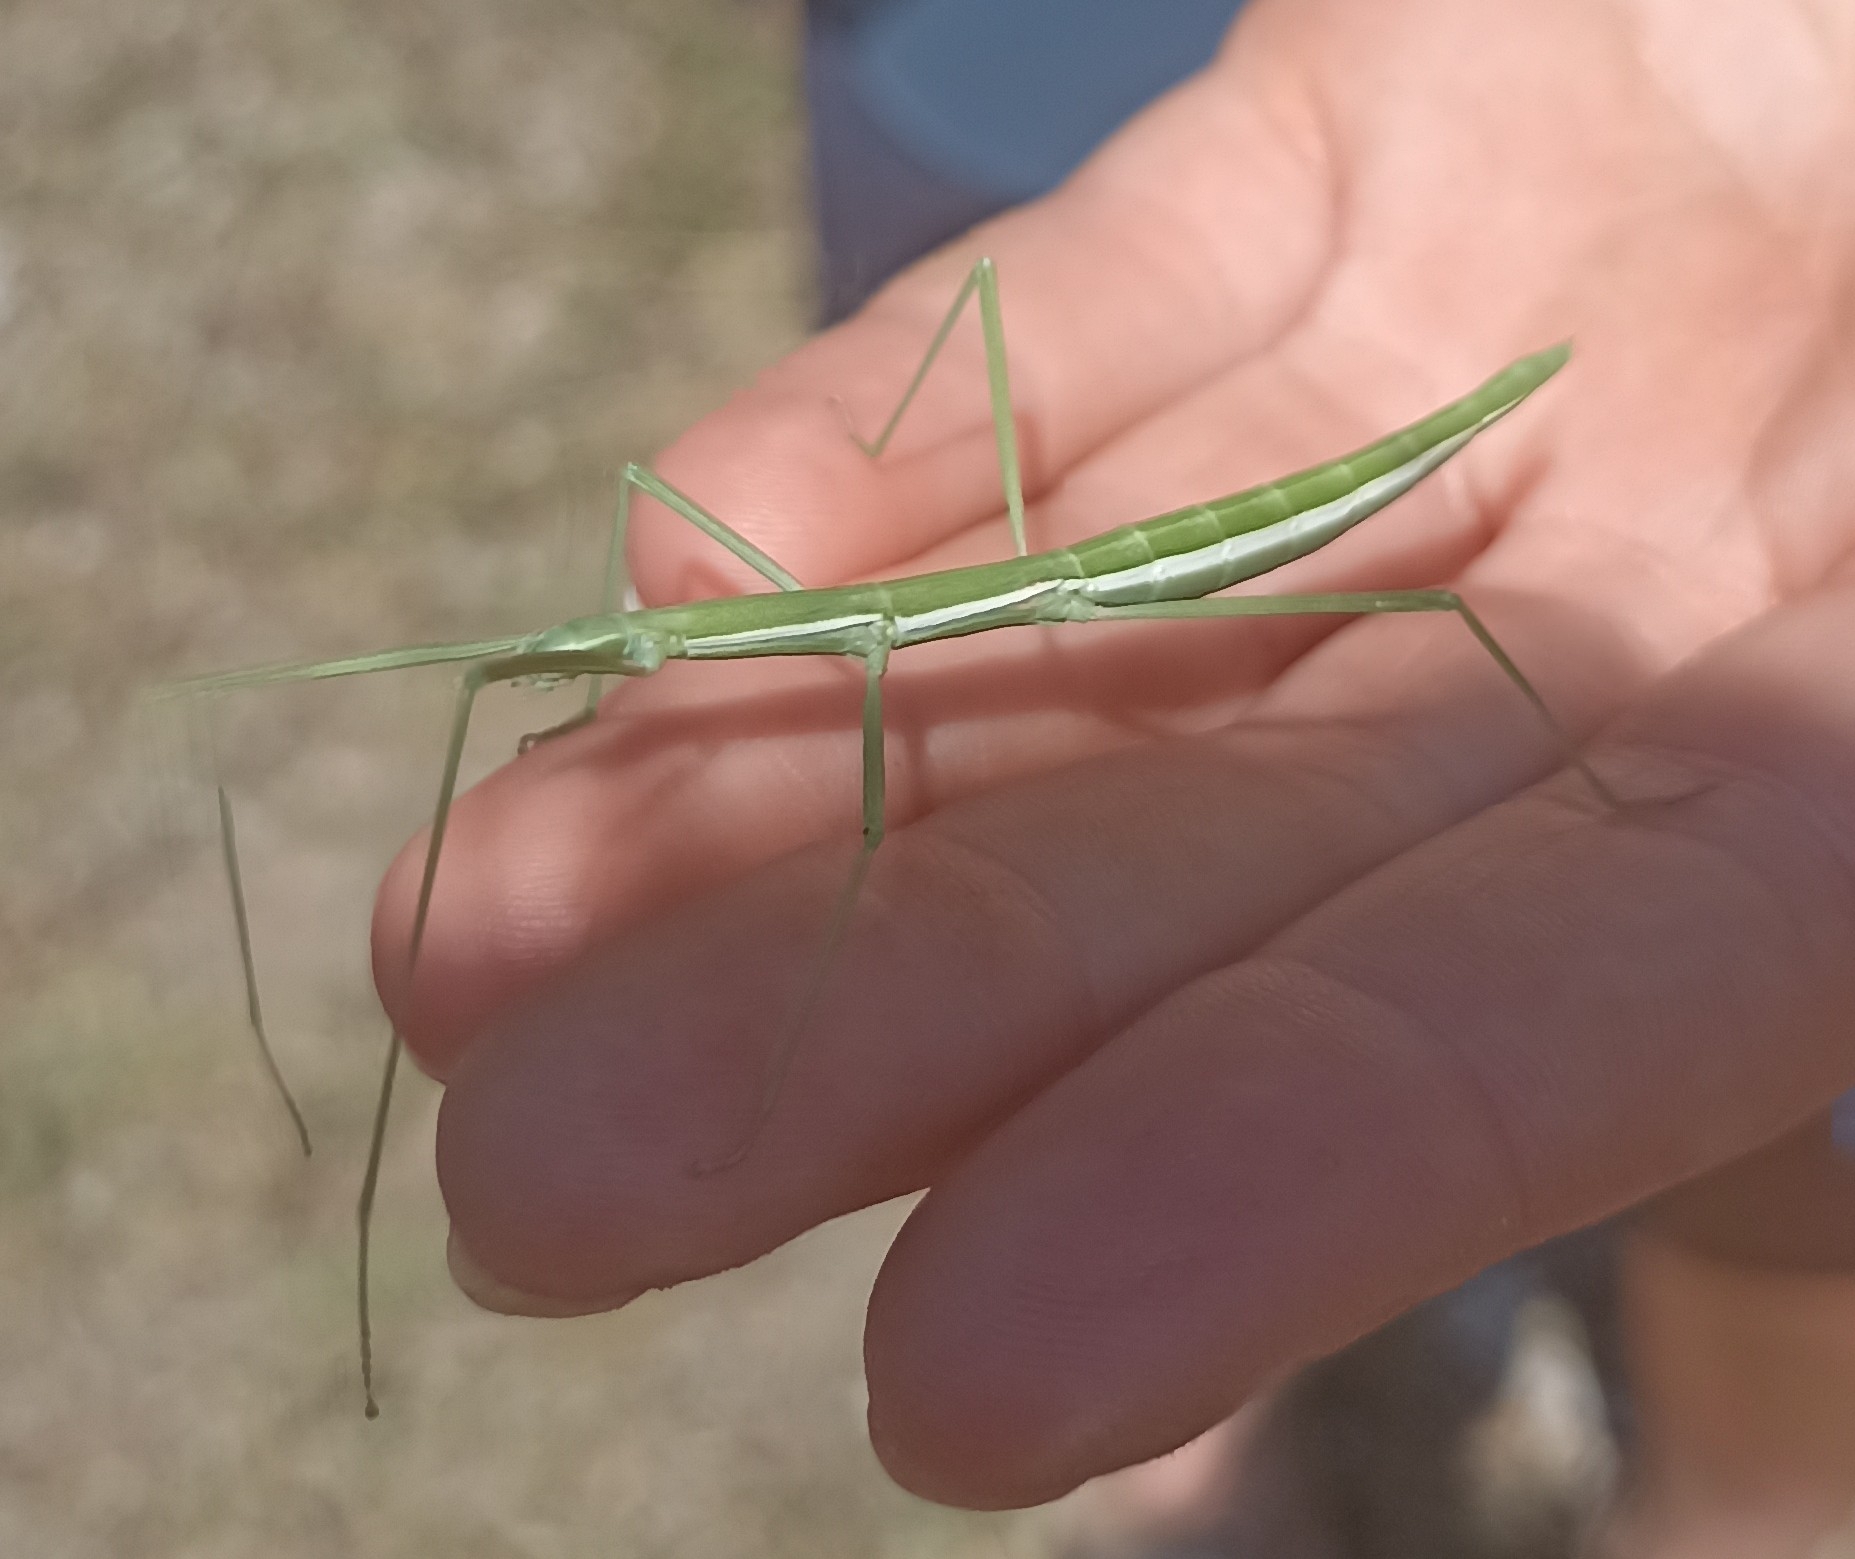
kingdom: Animalia
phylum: Arthropoda
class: Insecta
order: Phasmida
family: Bacillidae
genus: Pijnackeria
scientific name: Pijnackeria masettii
